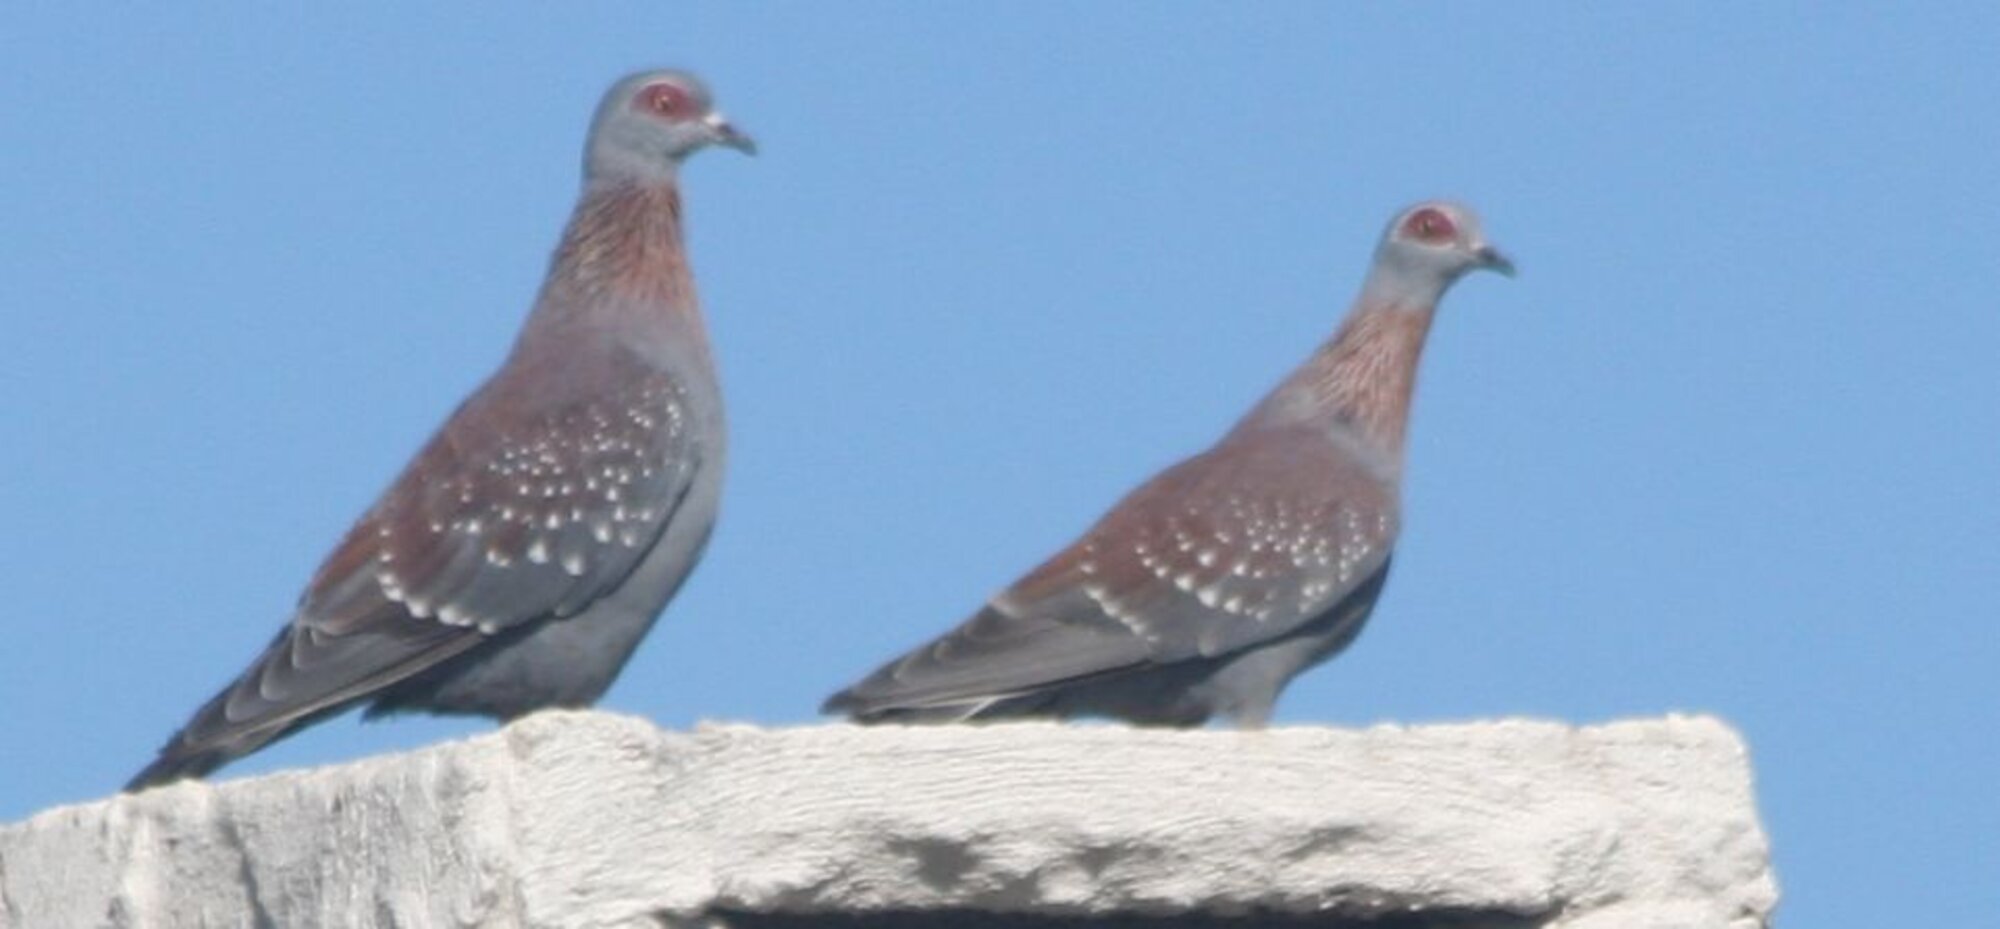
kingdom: Animalia
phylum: Chordata
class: Aves
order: Columbiformes
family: Columbidae
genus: Columba
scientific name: Columba guinea
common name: Speckled pigeon
